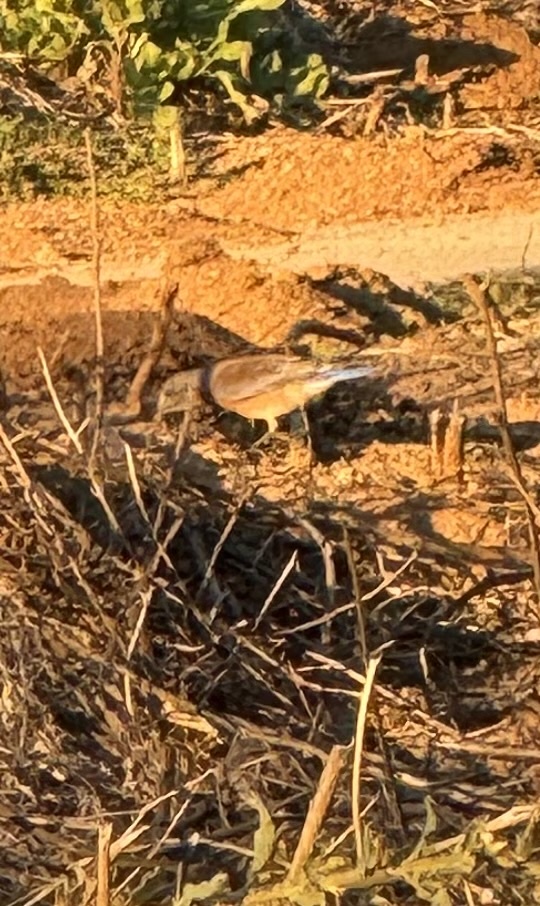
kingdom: Animalia
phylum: Chordata
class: Aves
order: Passeriformes
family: Turdidae
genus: Sialia
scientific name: Sialia mexicana
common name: Western bluebird
